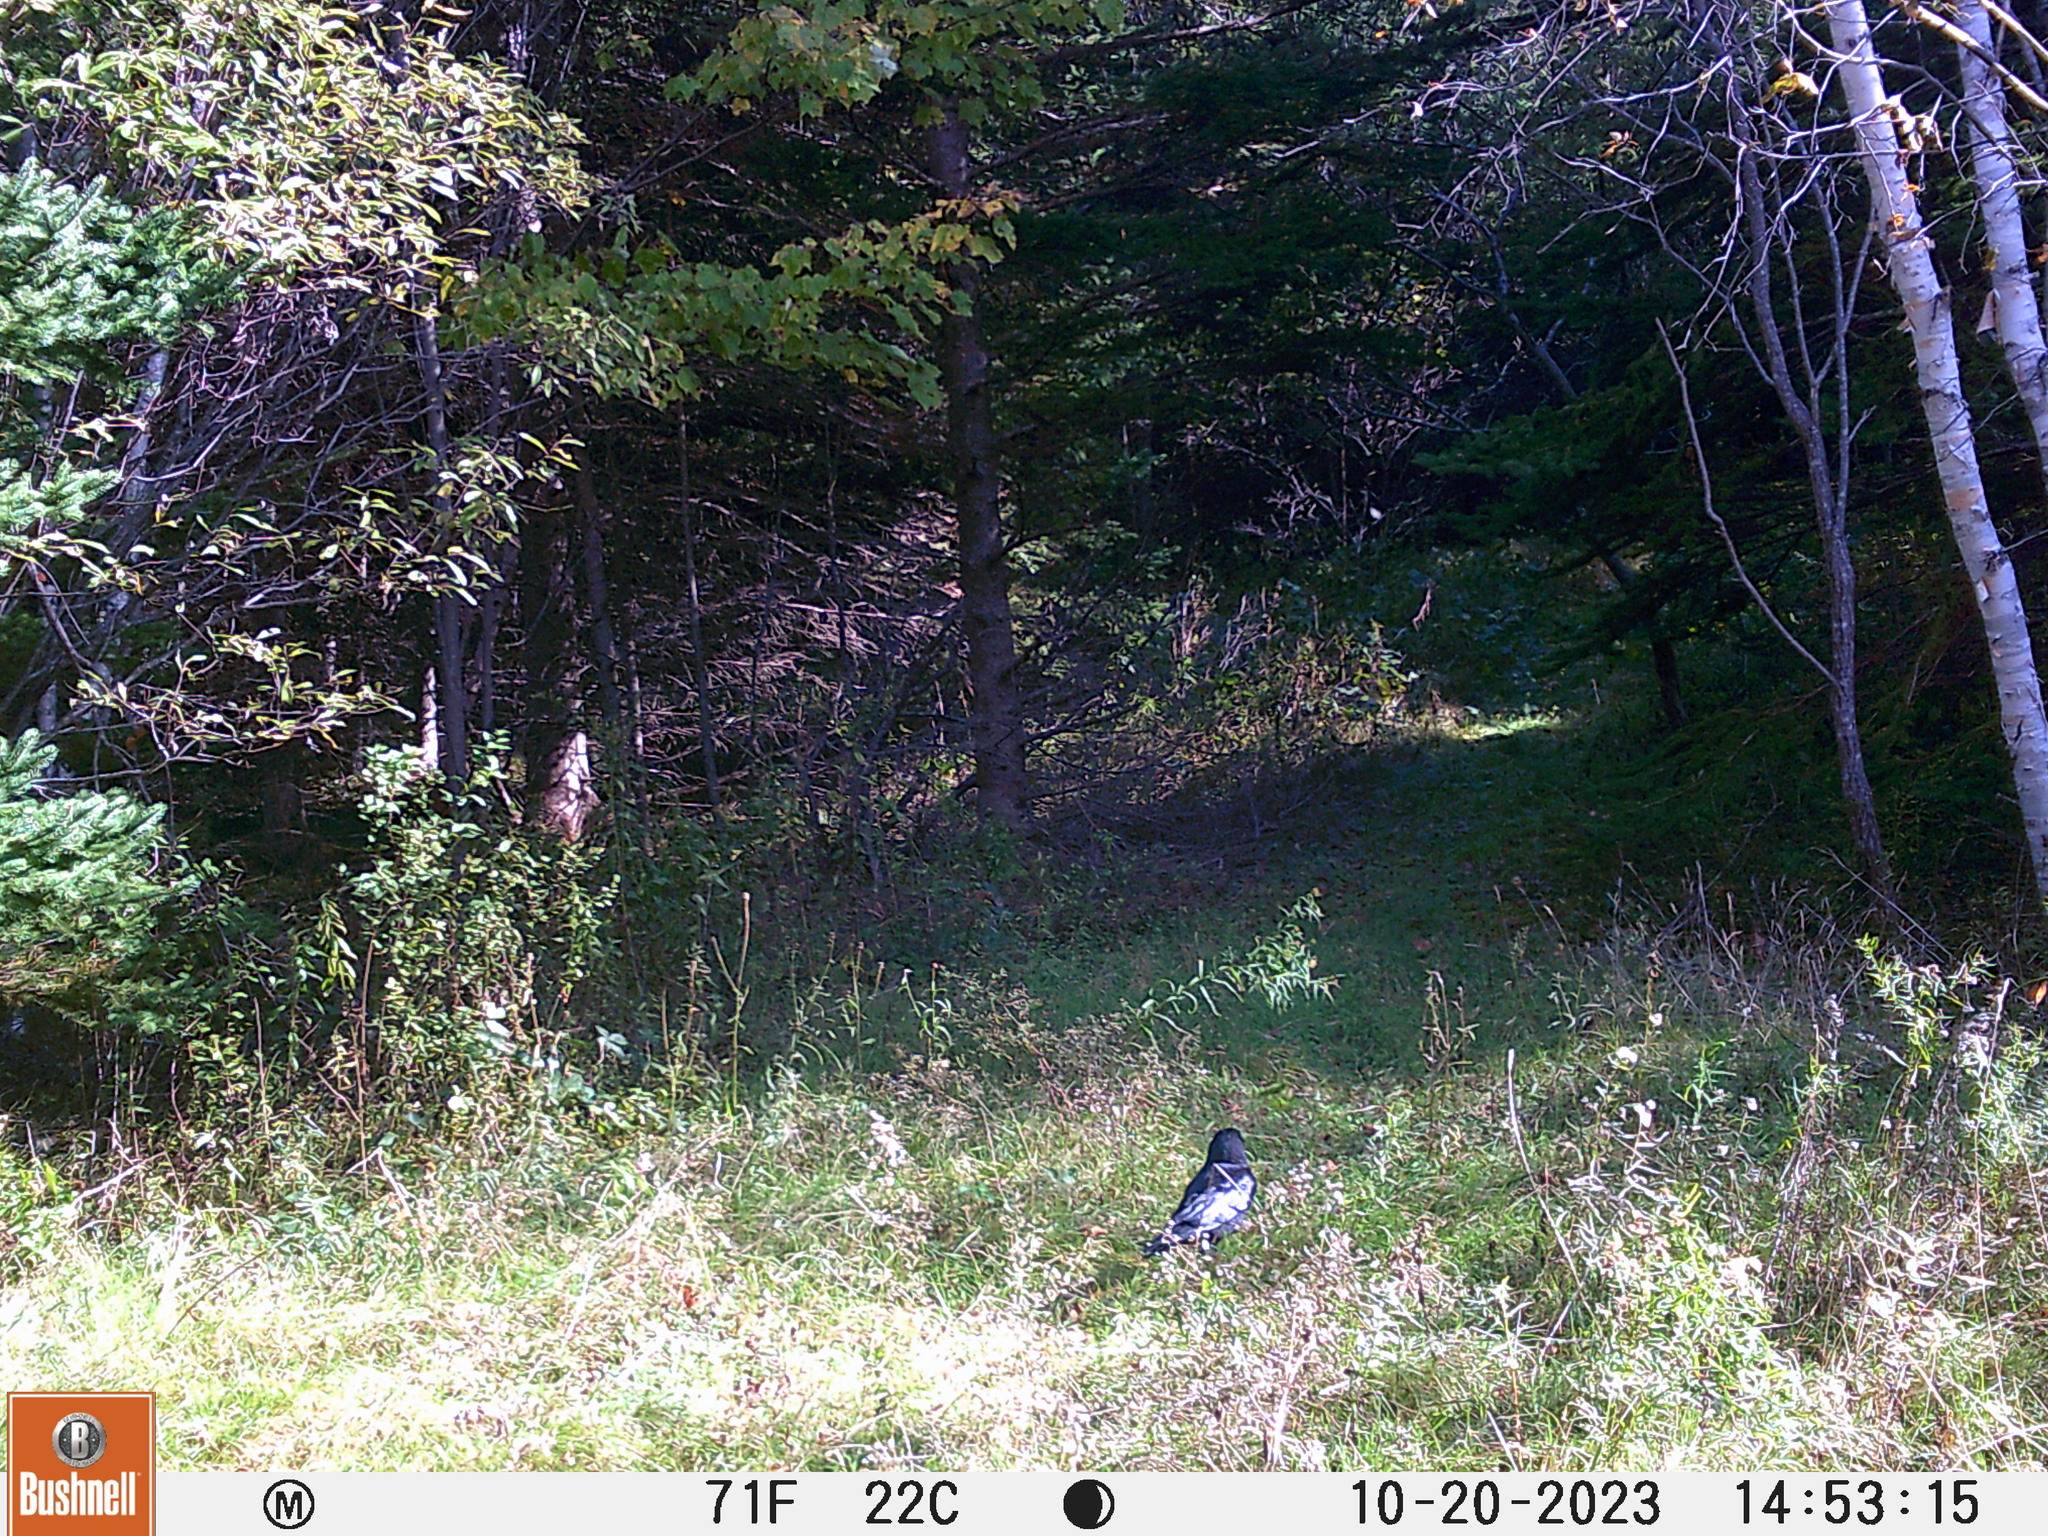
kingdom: Animalia
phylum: Chordata
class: Aves
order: Passeriformes
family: Corvidae
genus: Corvus
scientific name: Corvus brachyrhynchos
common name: American crow
